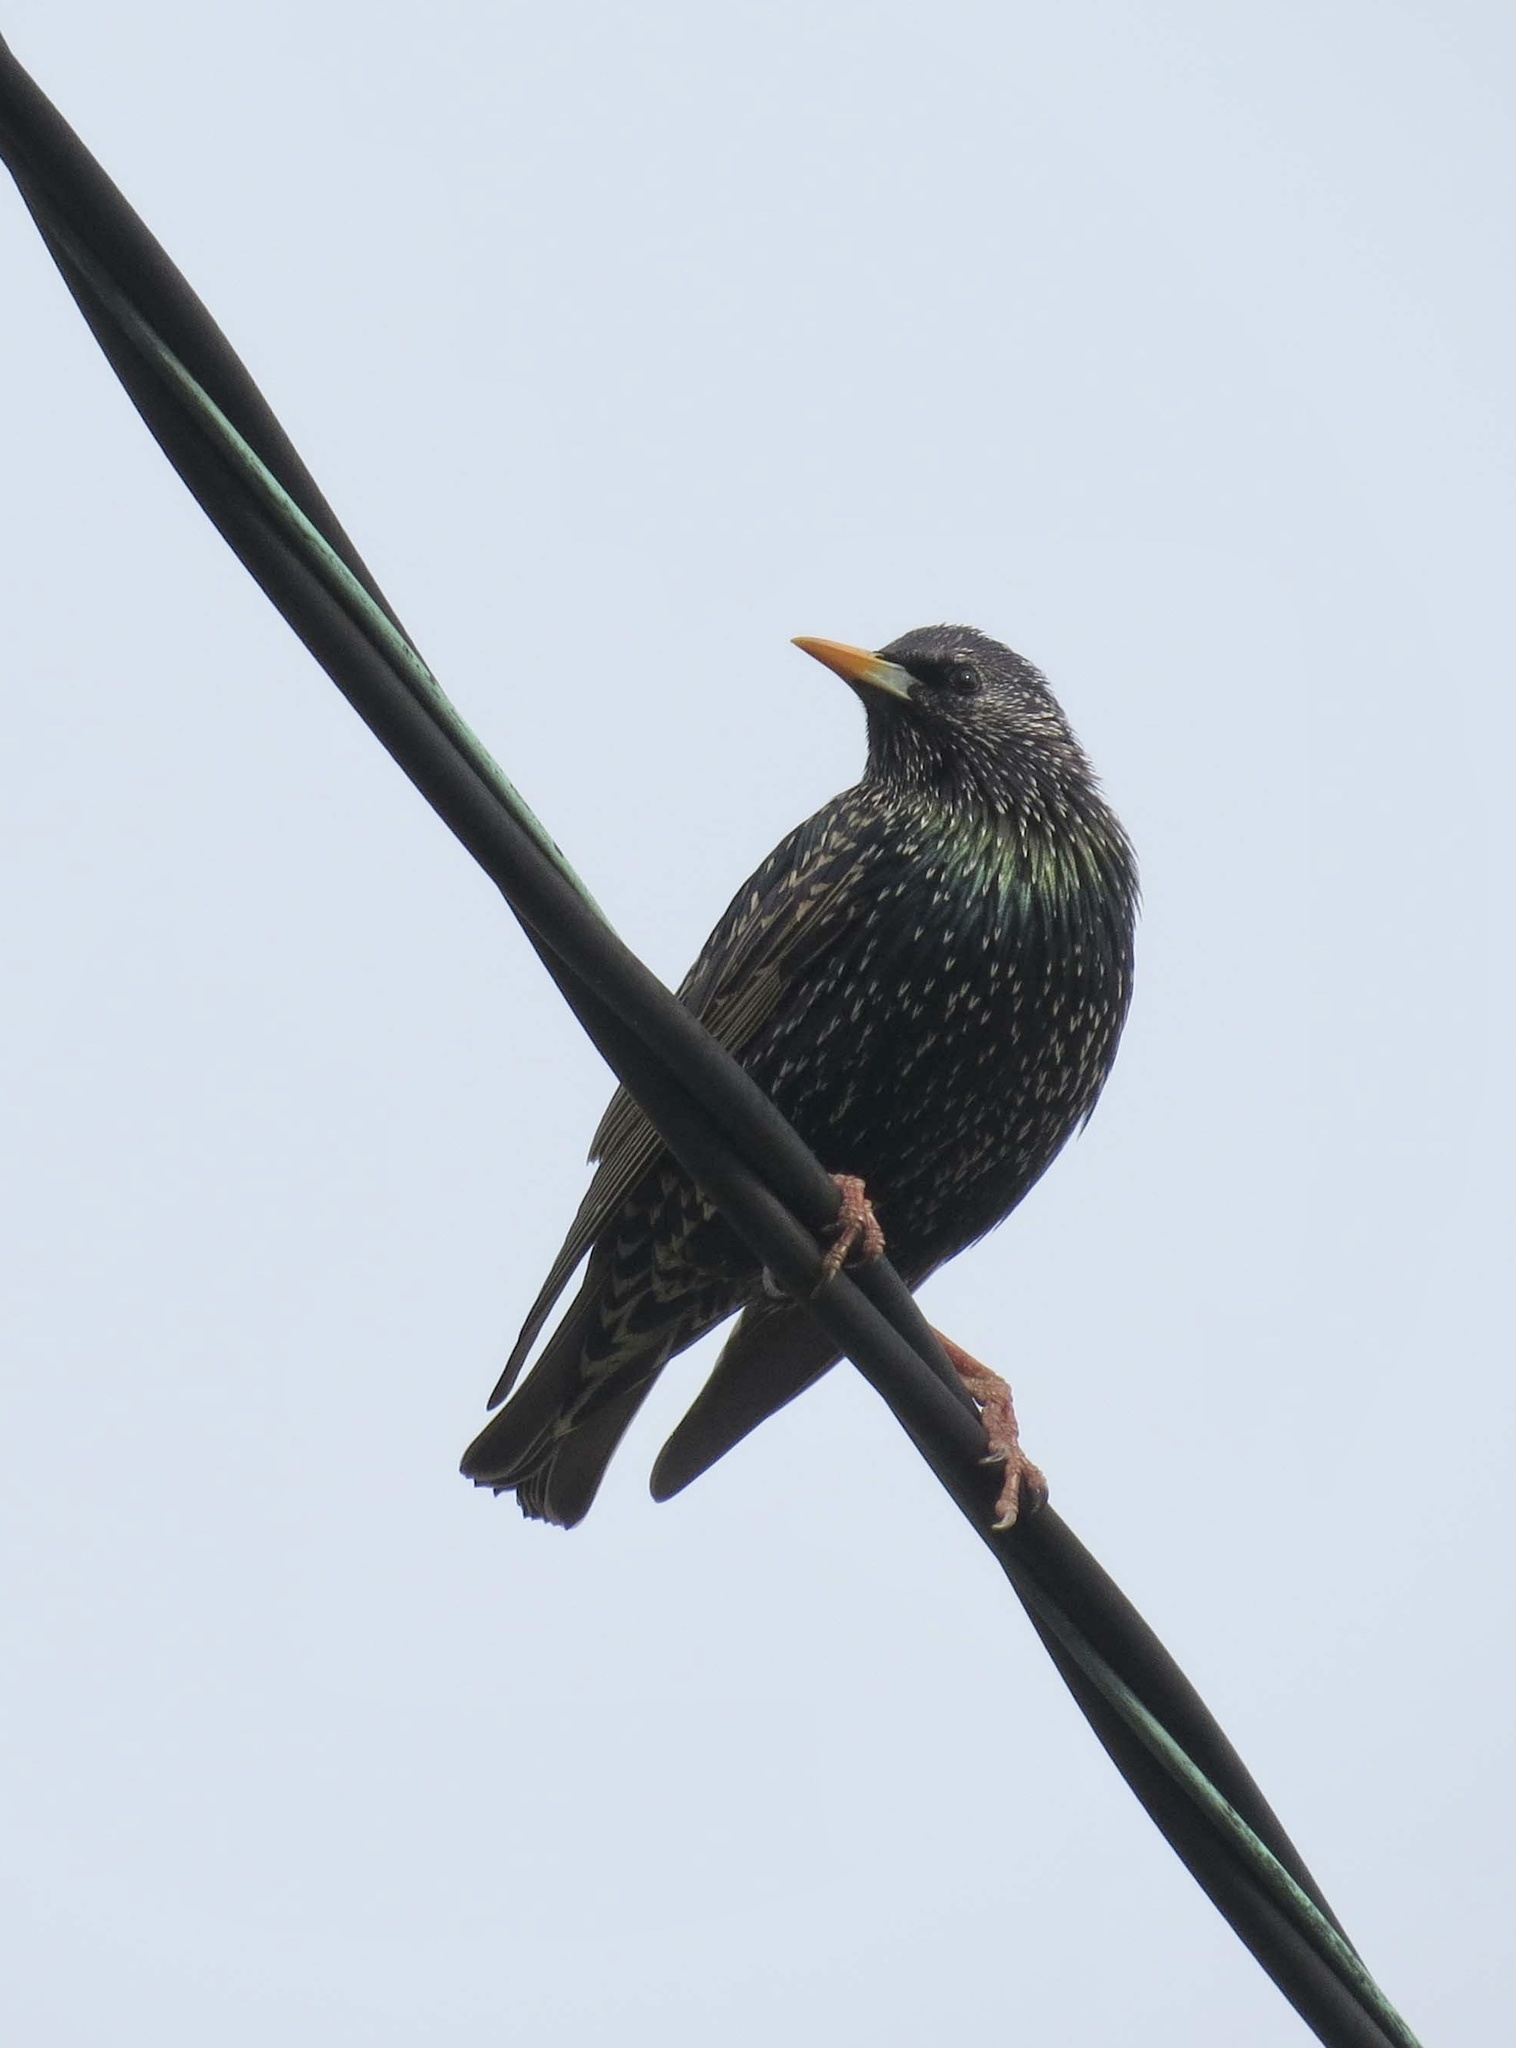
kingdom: Animalia
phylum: Chordata
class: Aves
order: Passeriformes
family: Sturnidae
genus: Sturnus
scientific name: Sturnus vulgaris
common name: Common starling
